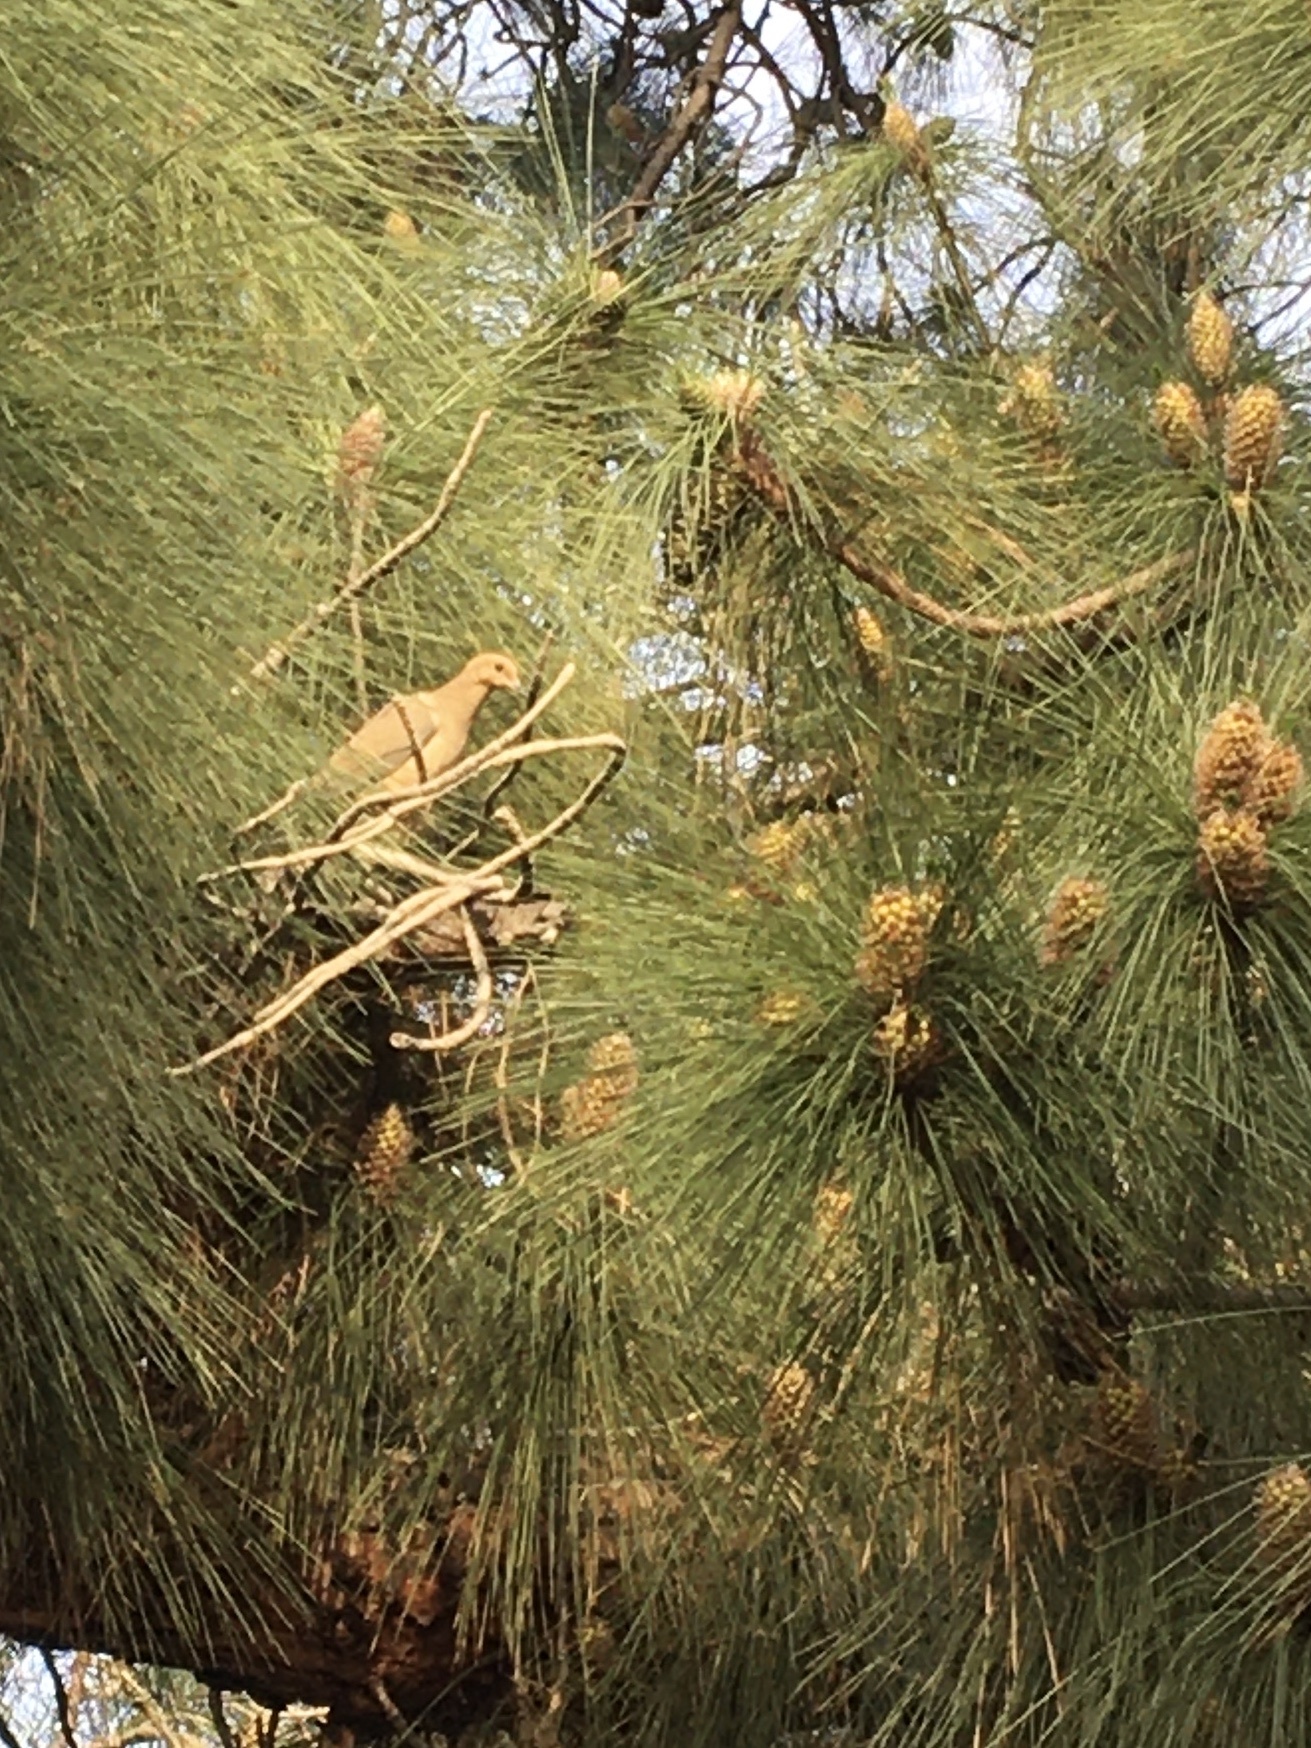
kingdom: Animalia
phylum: Chordata
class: Aves
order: Columbiformes
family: Columbidae
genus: Zenaida
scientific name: Zenaida macroura
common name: Mourning dove
